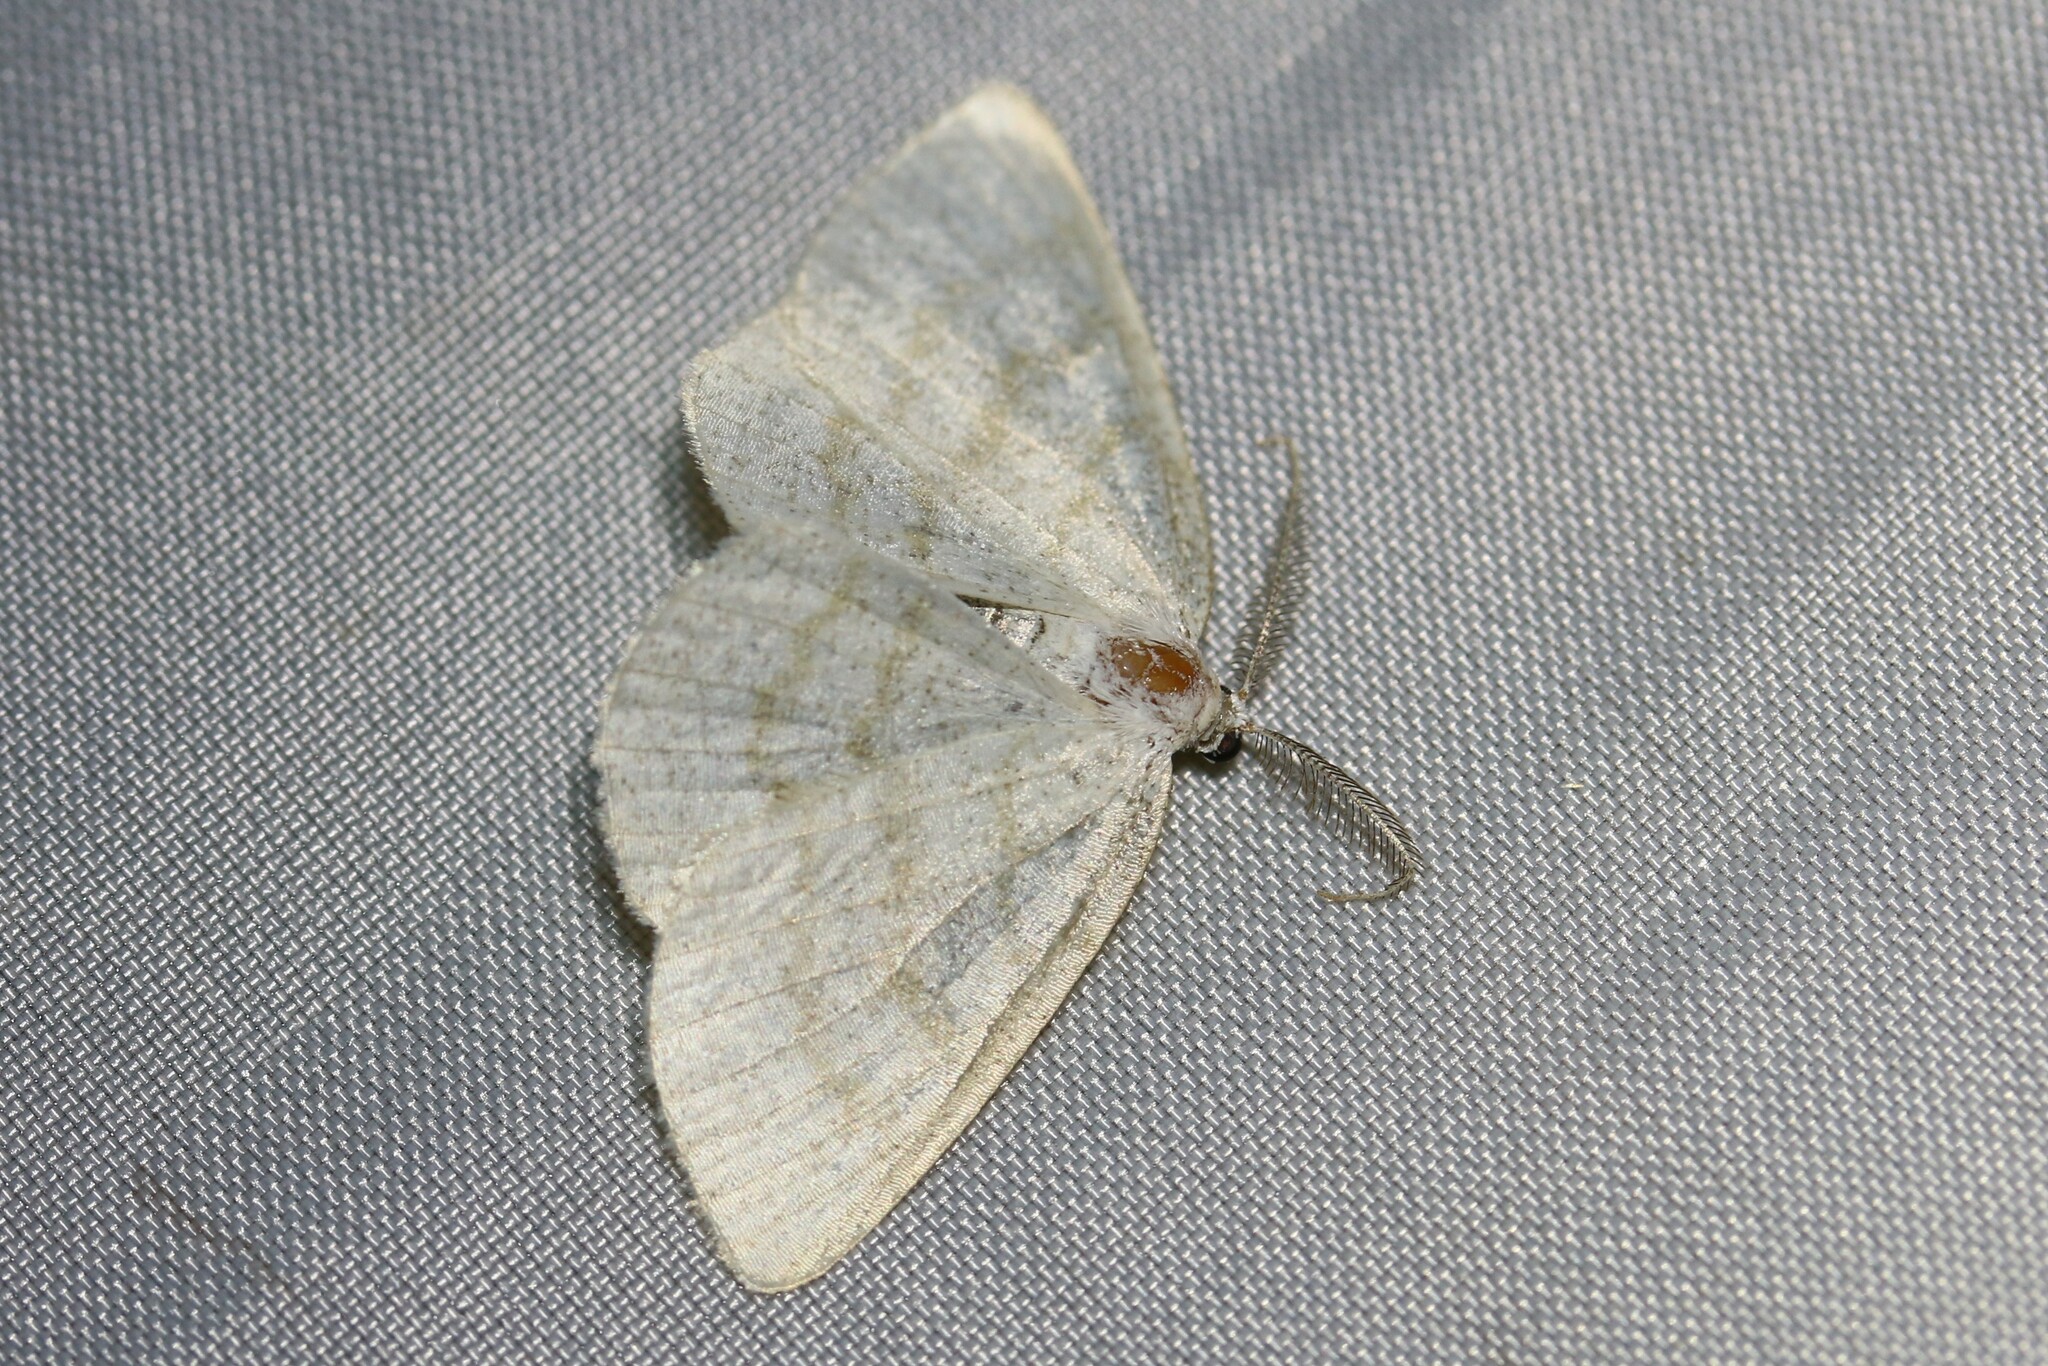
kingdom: Animalia
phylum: Arthropoda
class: Insecta
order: Lepidoptera
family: Geometridae
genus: Cabera
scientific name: Cabera exanthemata
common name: Common wave
